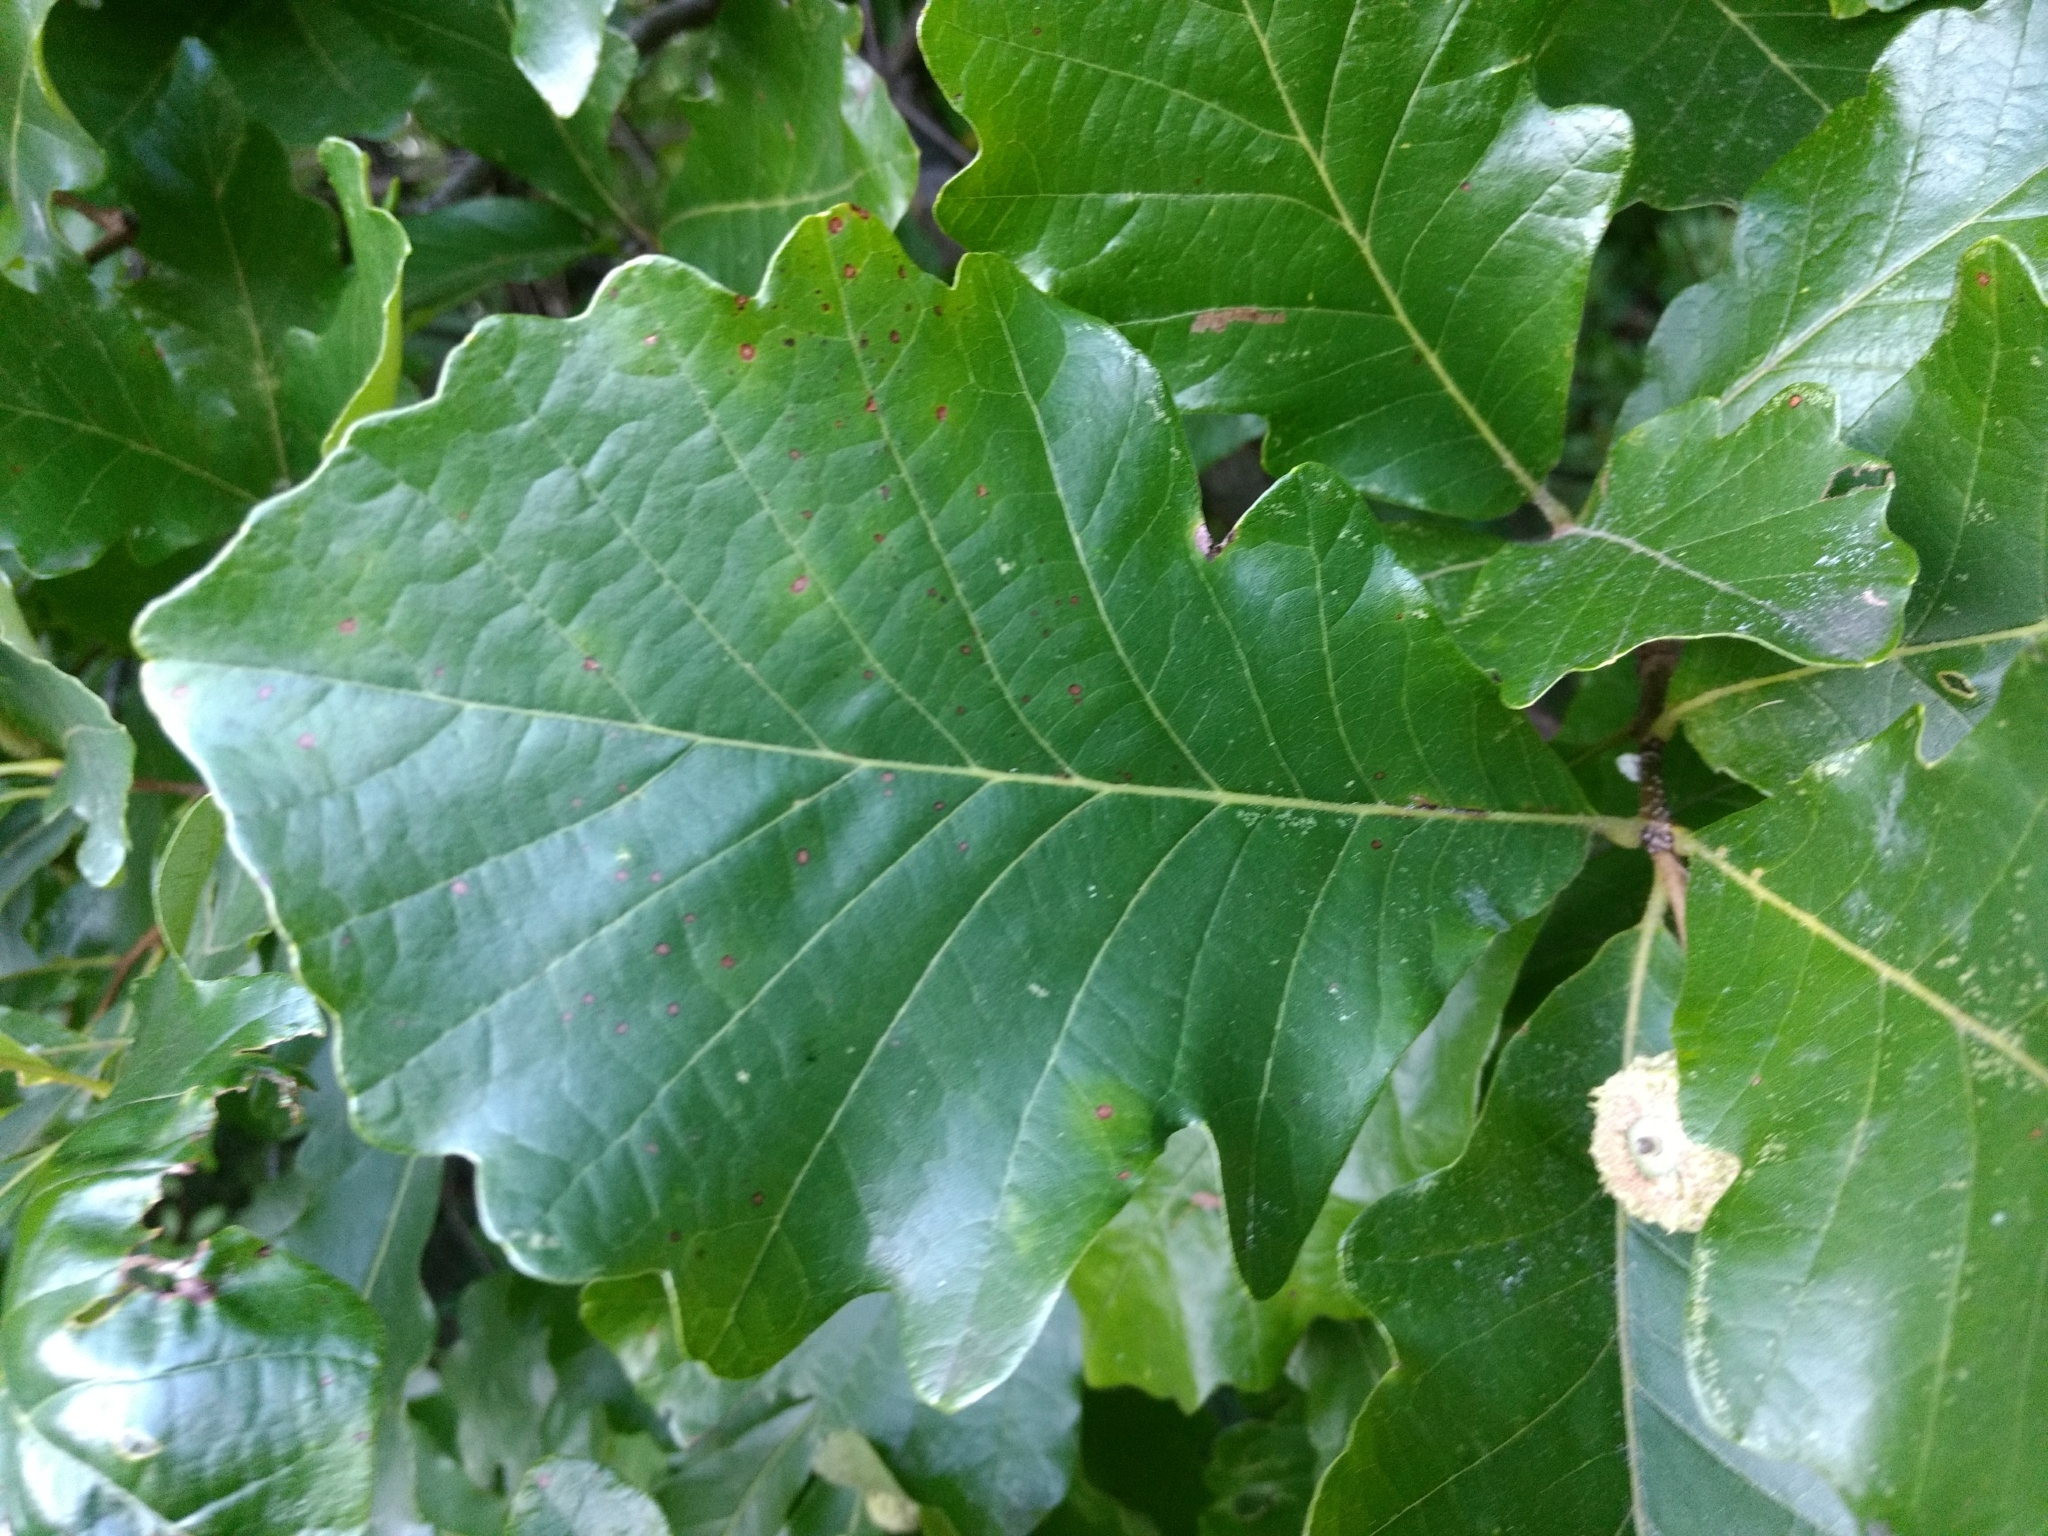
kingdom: Plantae
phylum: Tracheophyta
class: Magnoliopsida
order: Fagales
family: Fagaceae
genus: Quercus
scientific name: Quercus macrocarpa
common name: Bur oak
